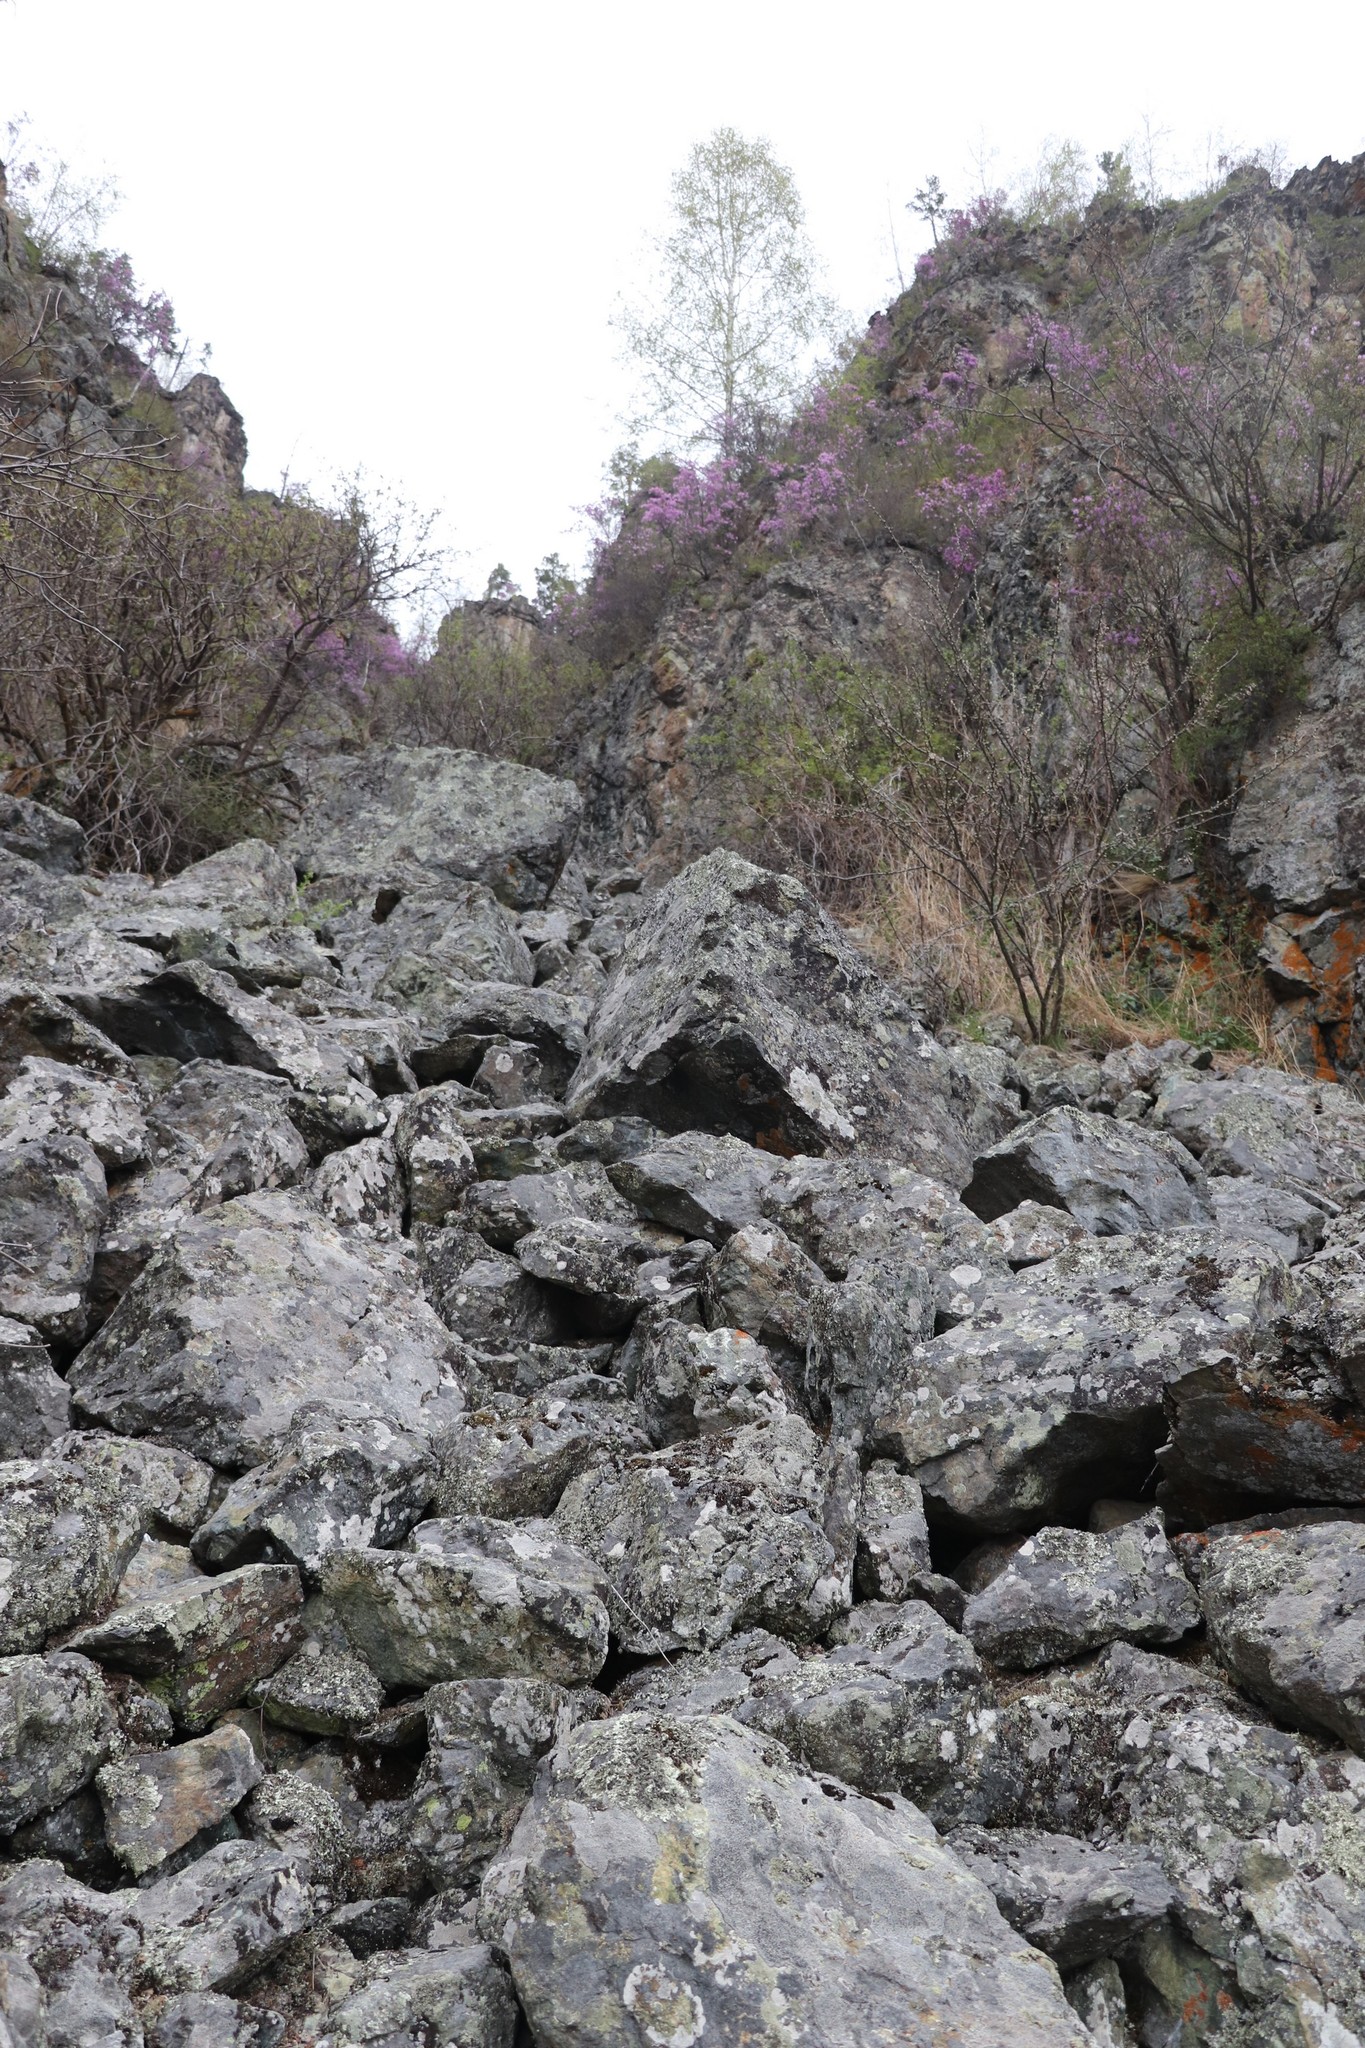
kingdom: Plantae
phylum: Tracheophyta
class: Magnoliopsida
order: Ericales
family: Ericaceae
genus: Rhododendron
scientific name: Rhododendron dauricum
